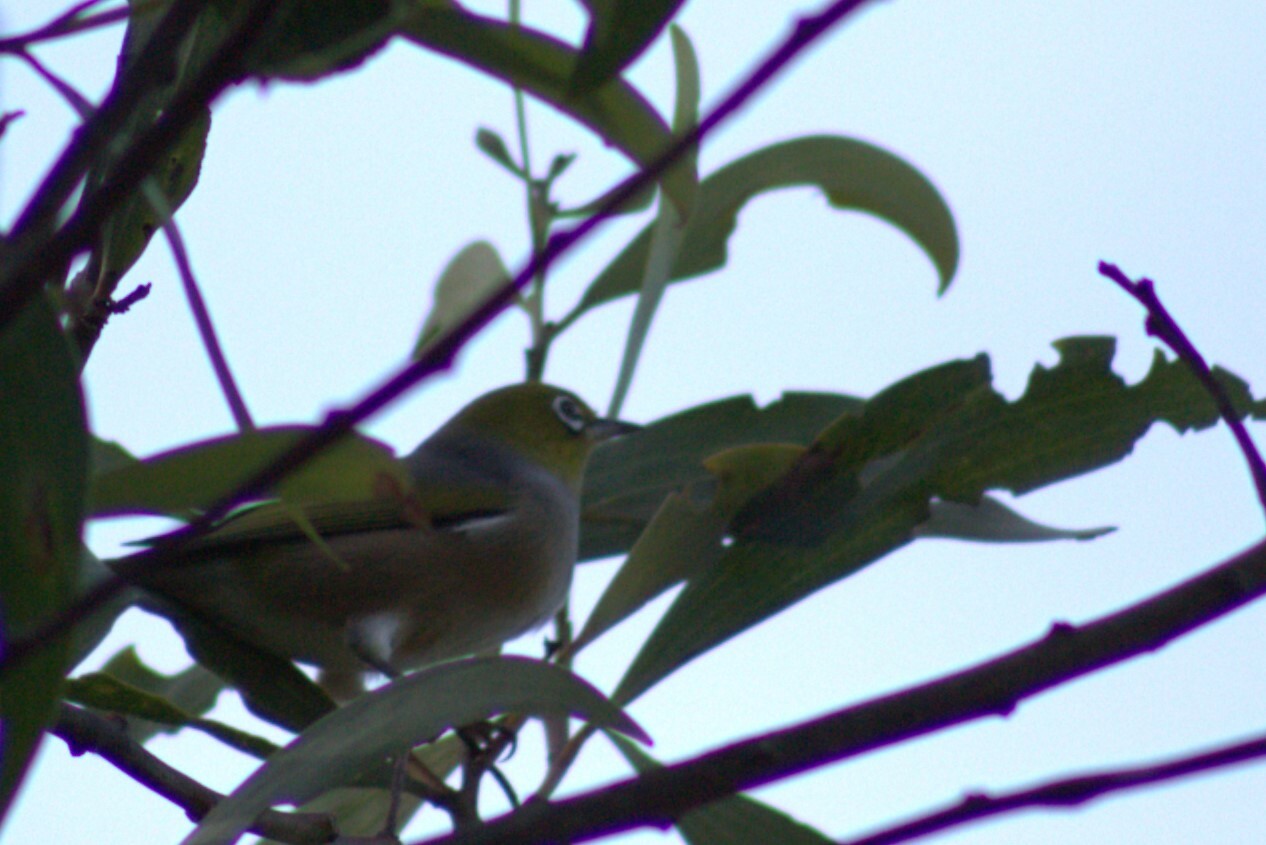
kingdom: Animalia
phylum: Chordata
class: Aves
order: Passeriformes
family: Zosteropidae
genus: Zosterops
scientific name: Zosterops lateralis
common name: Silvereye
